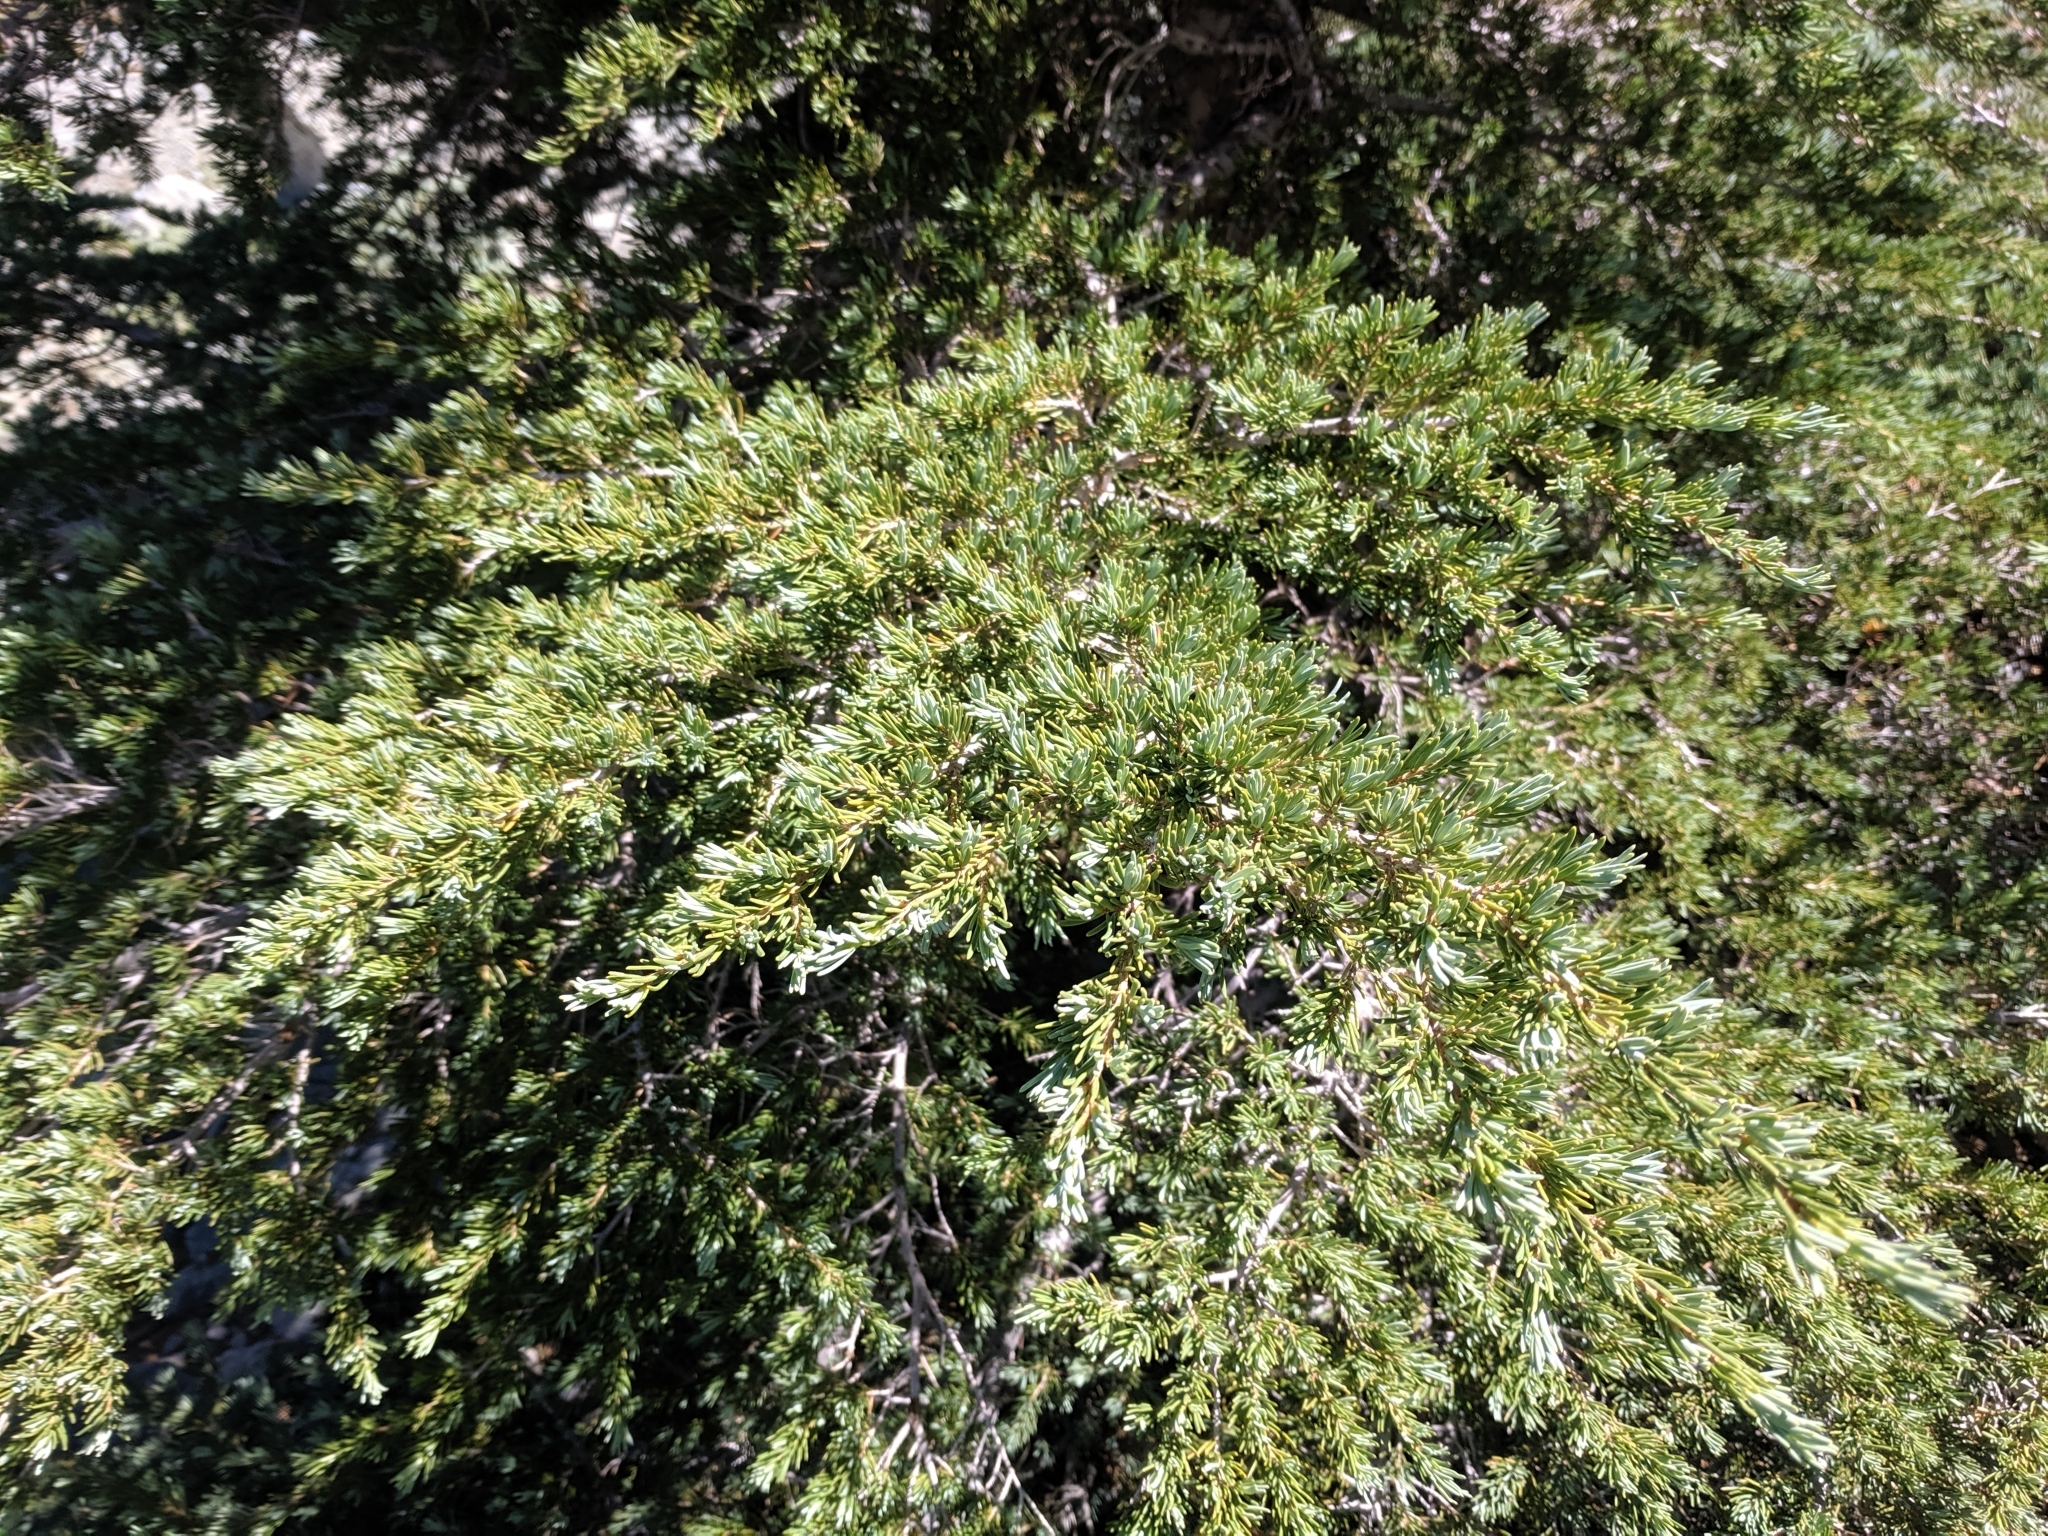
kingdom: Plantae
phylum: Tracheophyta
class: Pinopsida
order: Pinales
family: Pinaceae
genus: Tsuga
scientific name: Tsuga mertensiana
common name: Mountain hemlock
